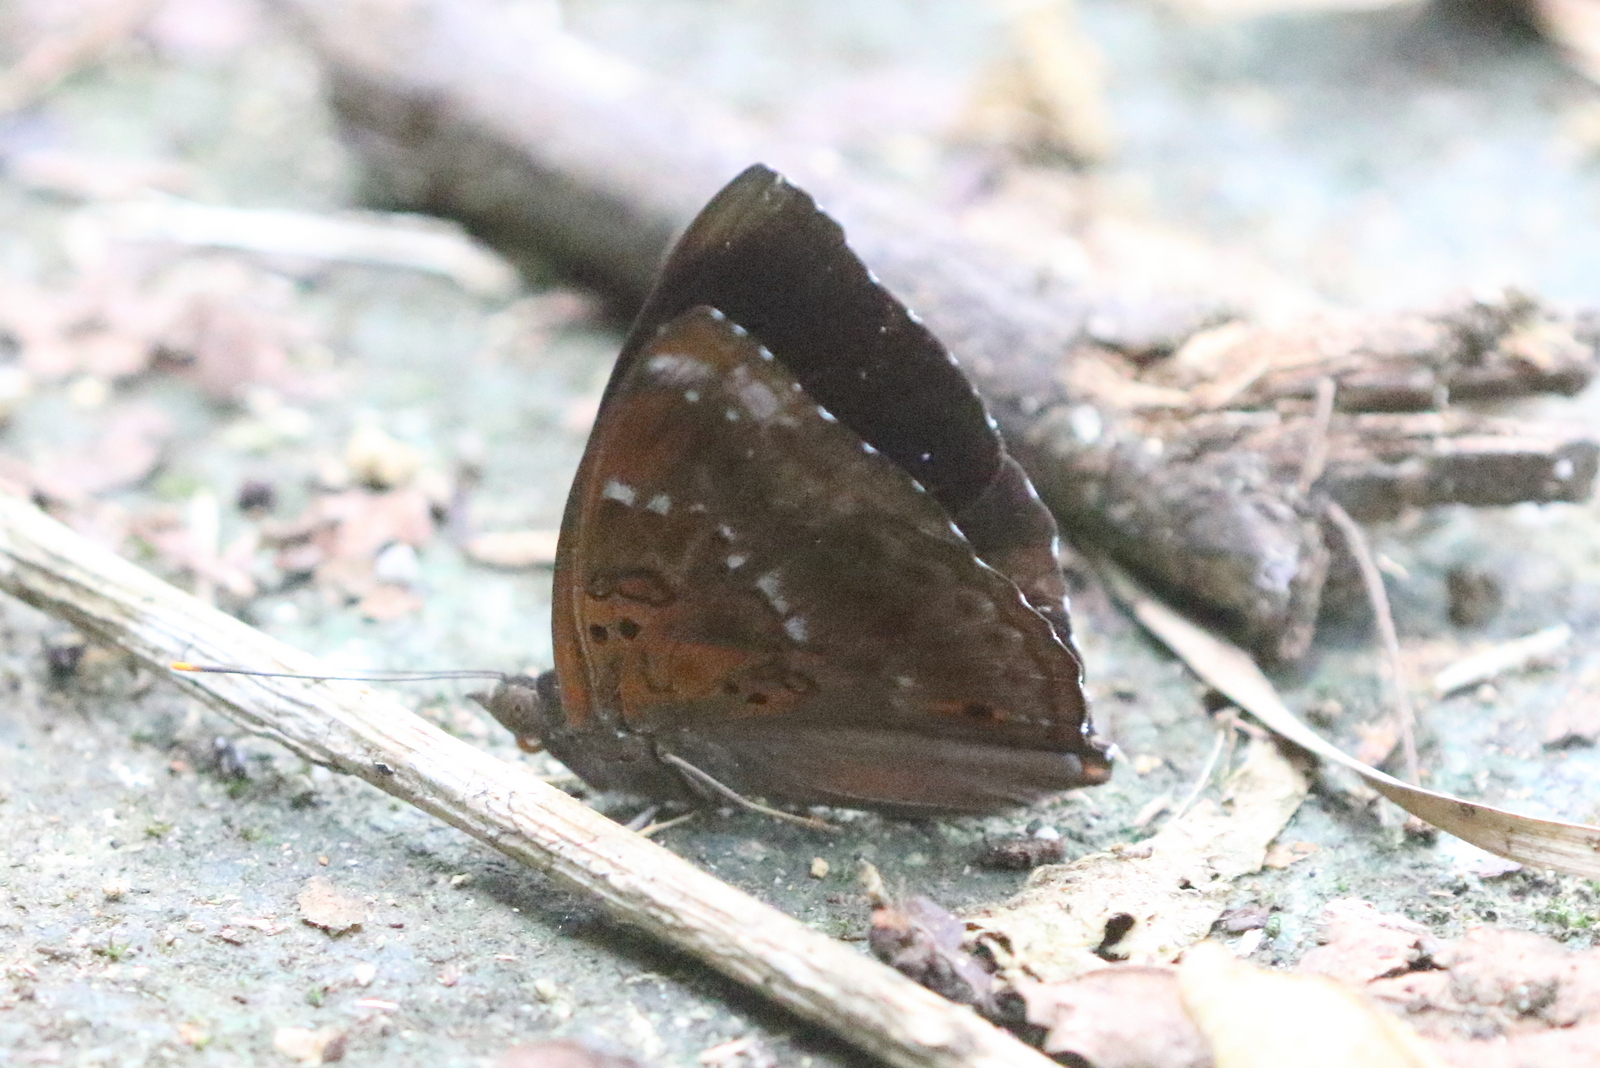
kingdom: Animalia
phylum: Arthropoda
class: Insecta
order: Lepidoptera
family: Nymphalidae
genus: Apatura
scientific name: Apatura Rohana spec
